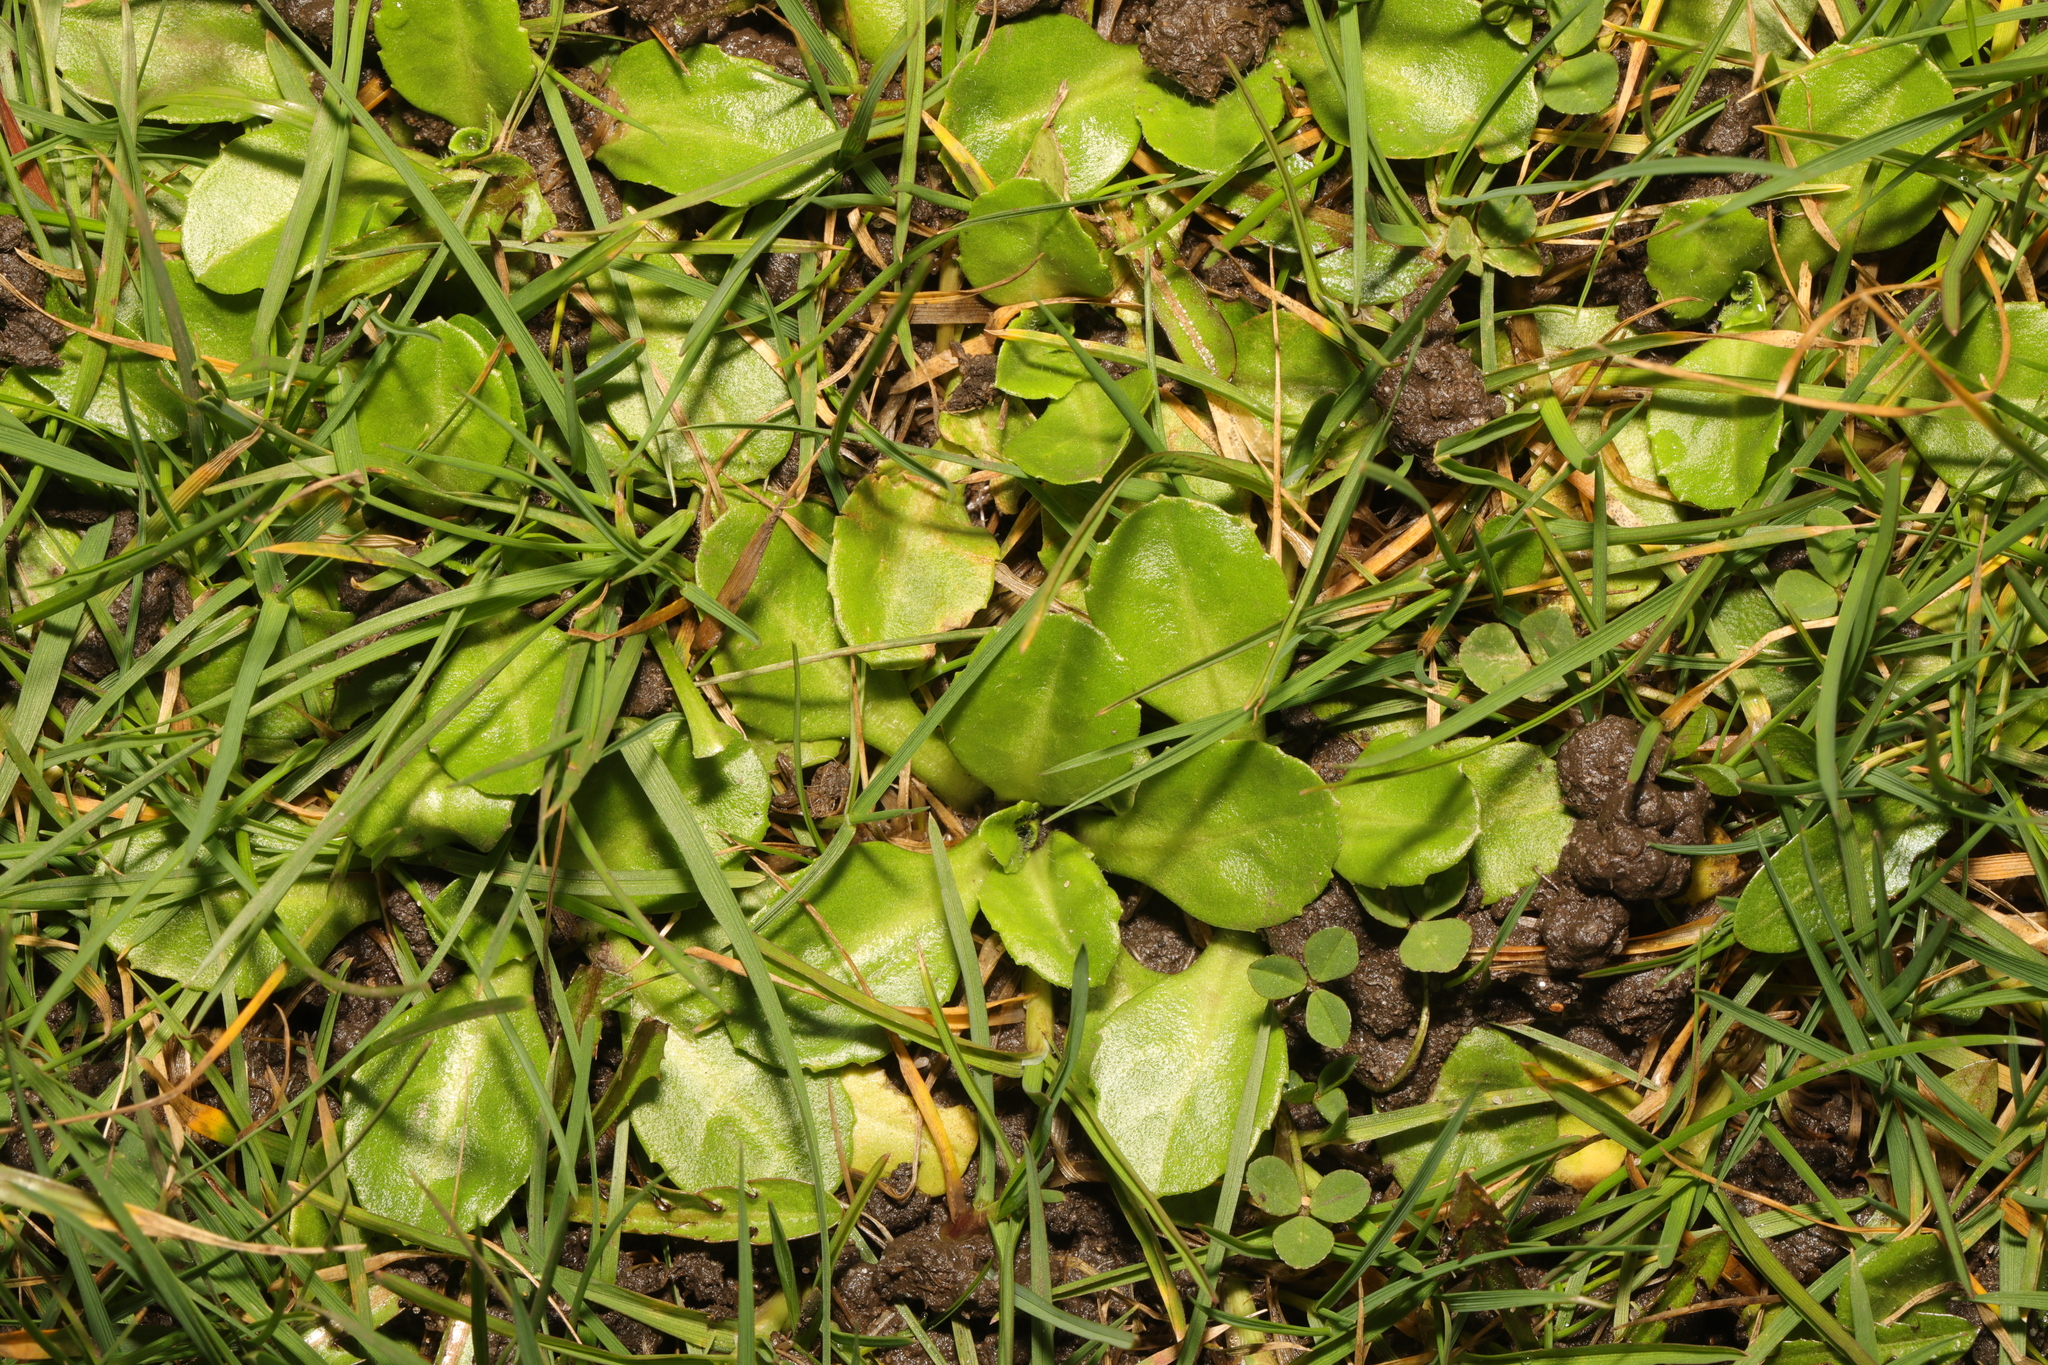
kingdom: Plantae
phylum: Tracheophyta
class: Magnoliopsida
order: Asterales
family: Asteraceae
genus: Bellis
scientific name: Bellis perennis
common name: Lawndaisy
